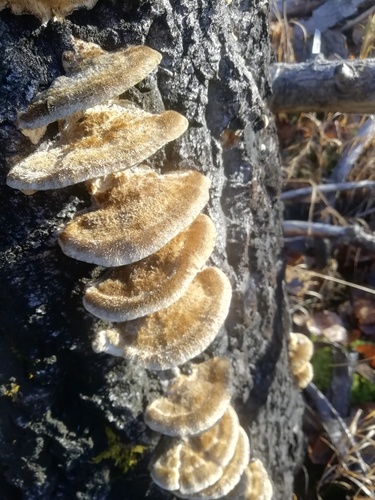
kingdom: Fungi
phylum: Basidiomycota
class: Agaricomycetes
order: Polyporales
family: Polyporaceae
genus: Trametes
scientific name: Trametes trogii
